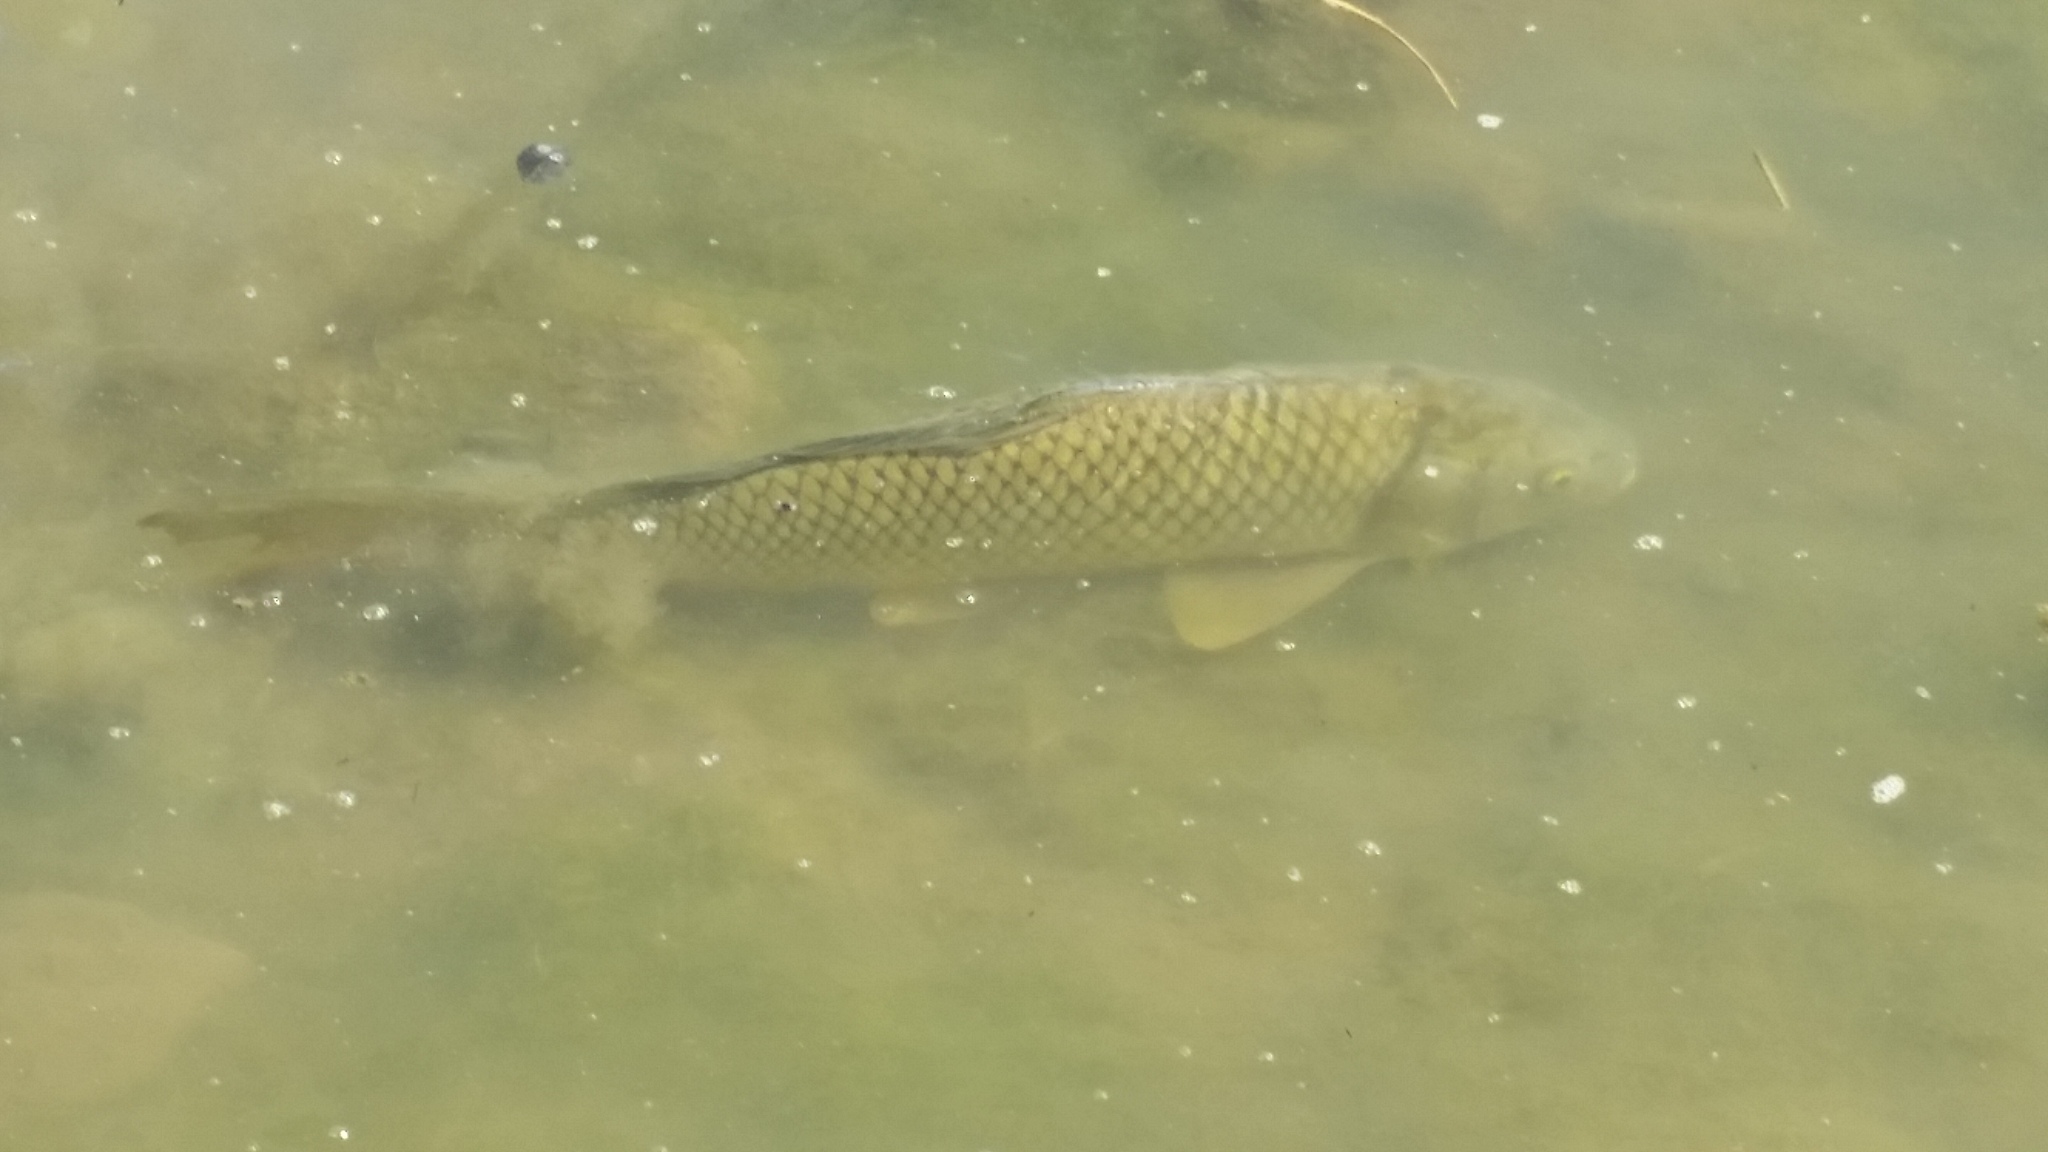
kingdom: Animalia
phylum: Chordata
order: Cypriniformes
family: Cyprinidae
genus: Cyprinus
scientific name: Cyprinus carpio
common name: Common carp
